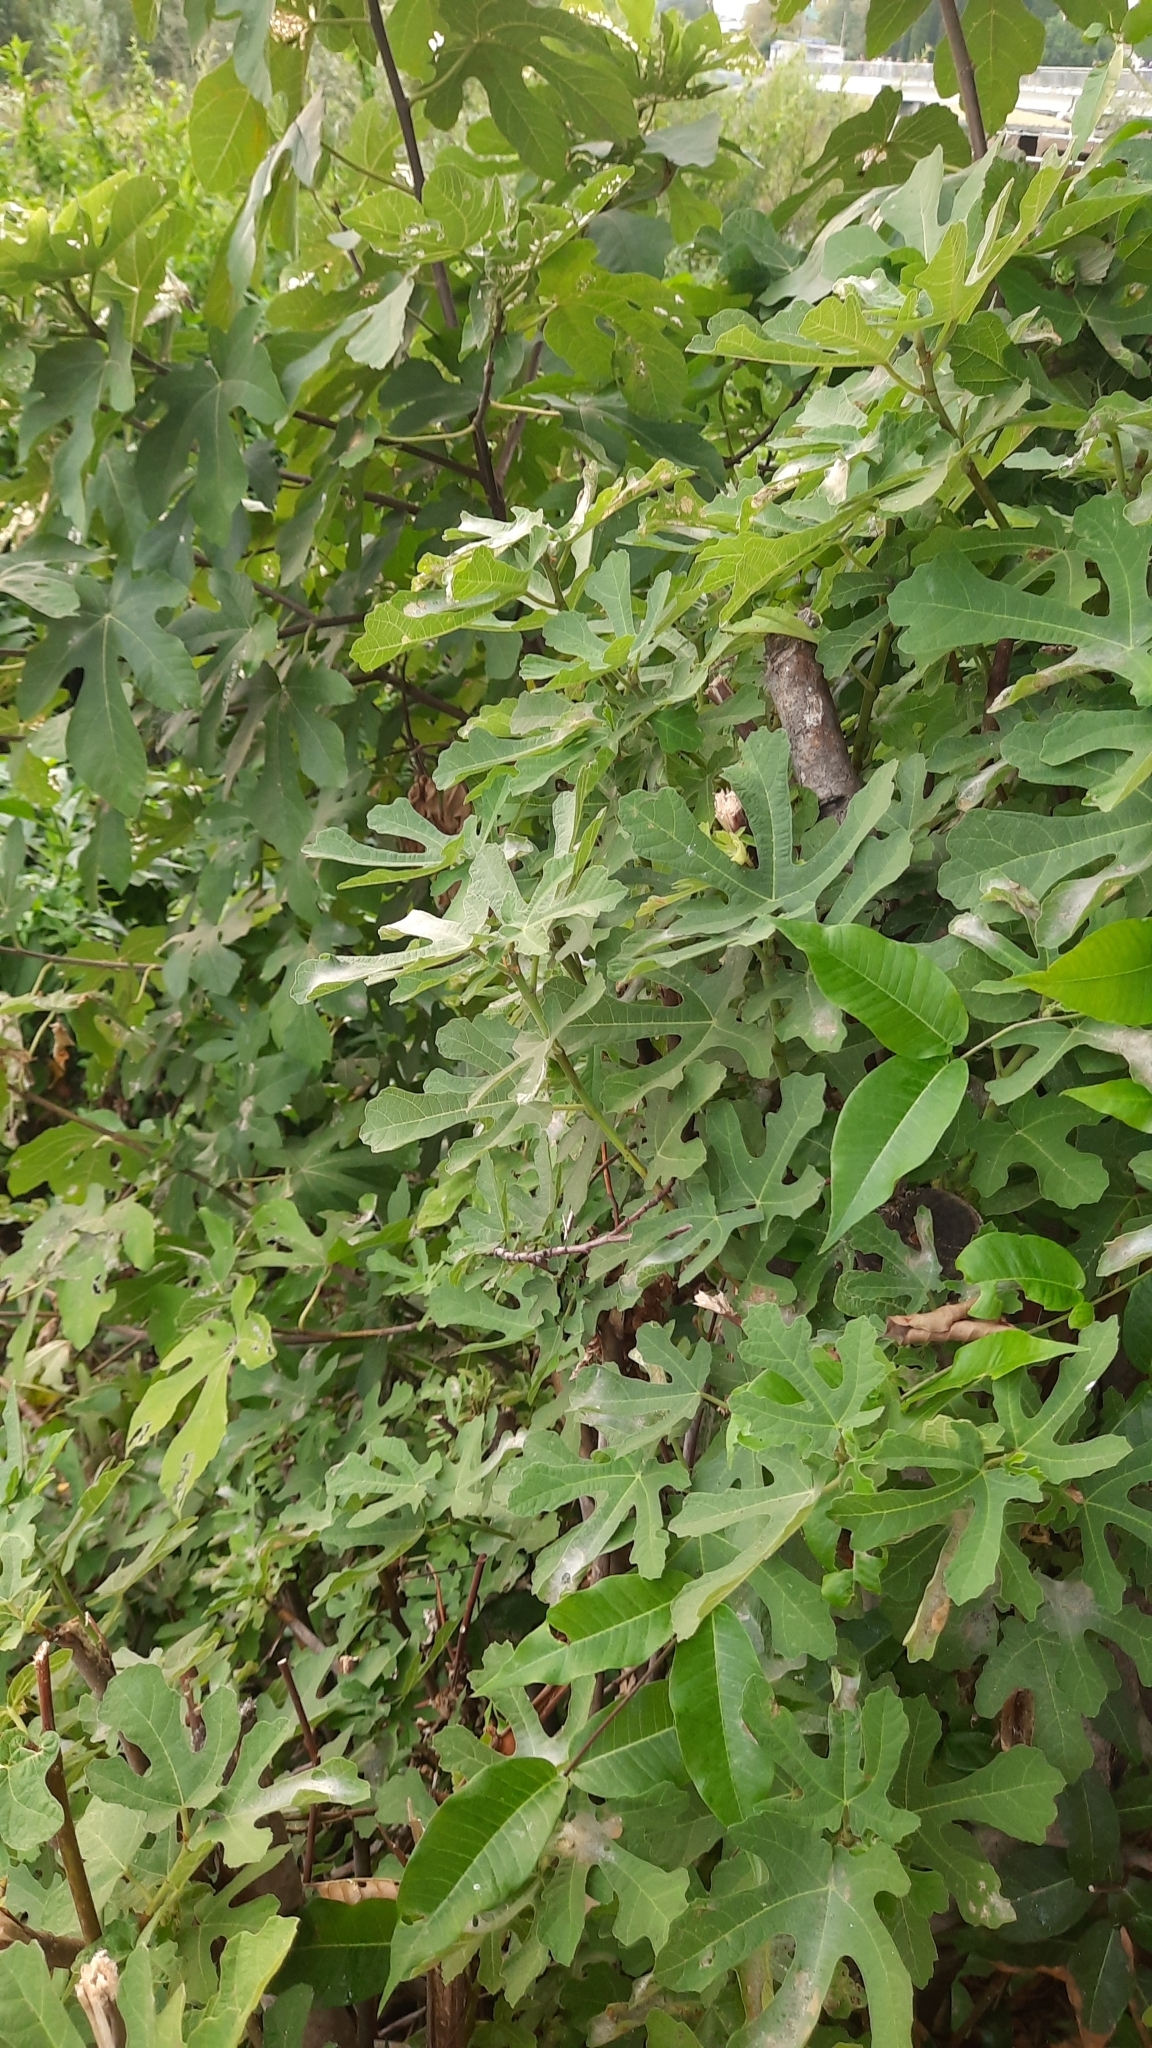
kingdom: Plantae
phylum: Tracheophyta
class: Magnoliopsida
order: Rosales
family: Moraceae
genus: Ficus
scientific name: Ficus carica
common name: Fig
